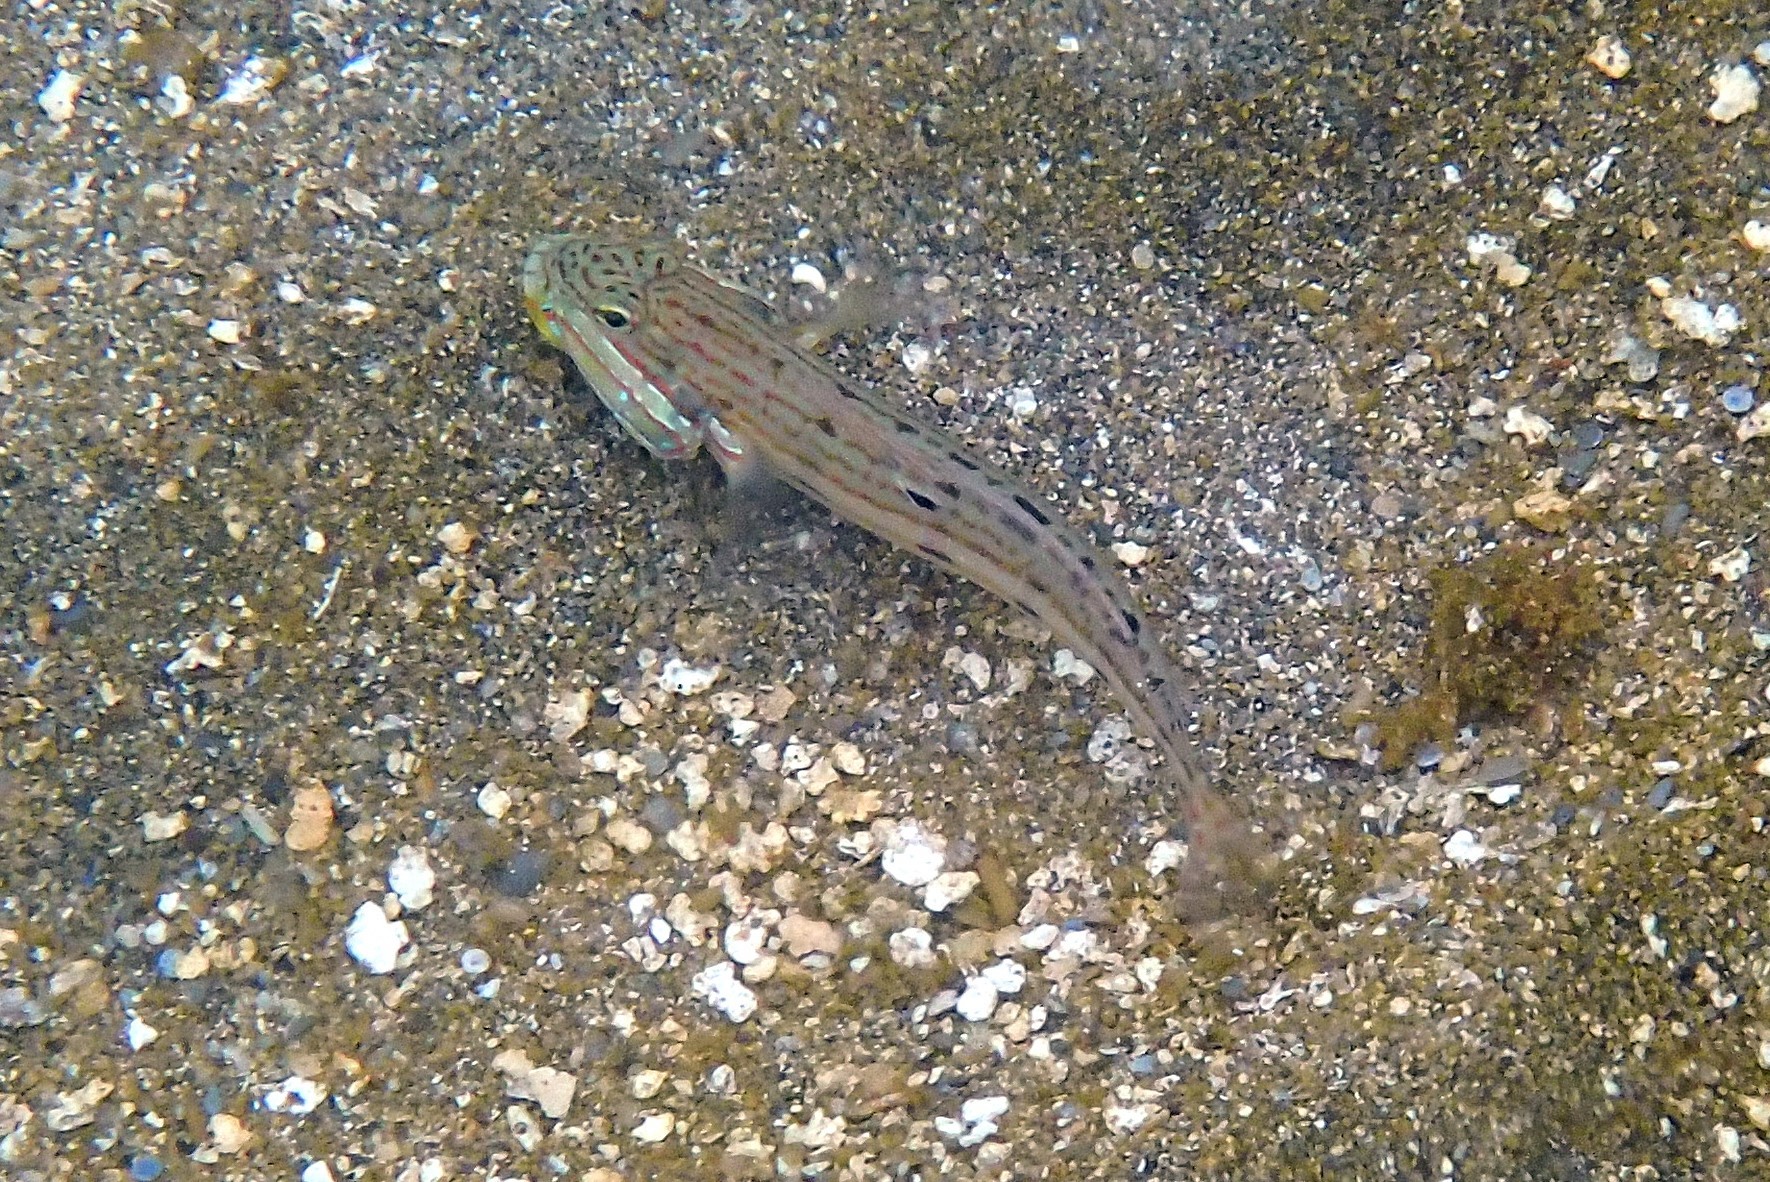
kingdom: Animalia
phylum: Chordata
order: Perciformes
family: Gobiidae
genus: Valenciennea
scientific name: Valenciennea longipinnis
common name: Longfinned goby
